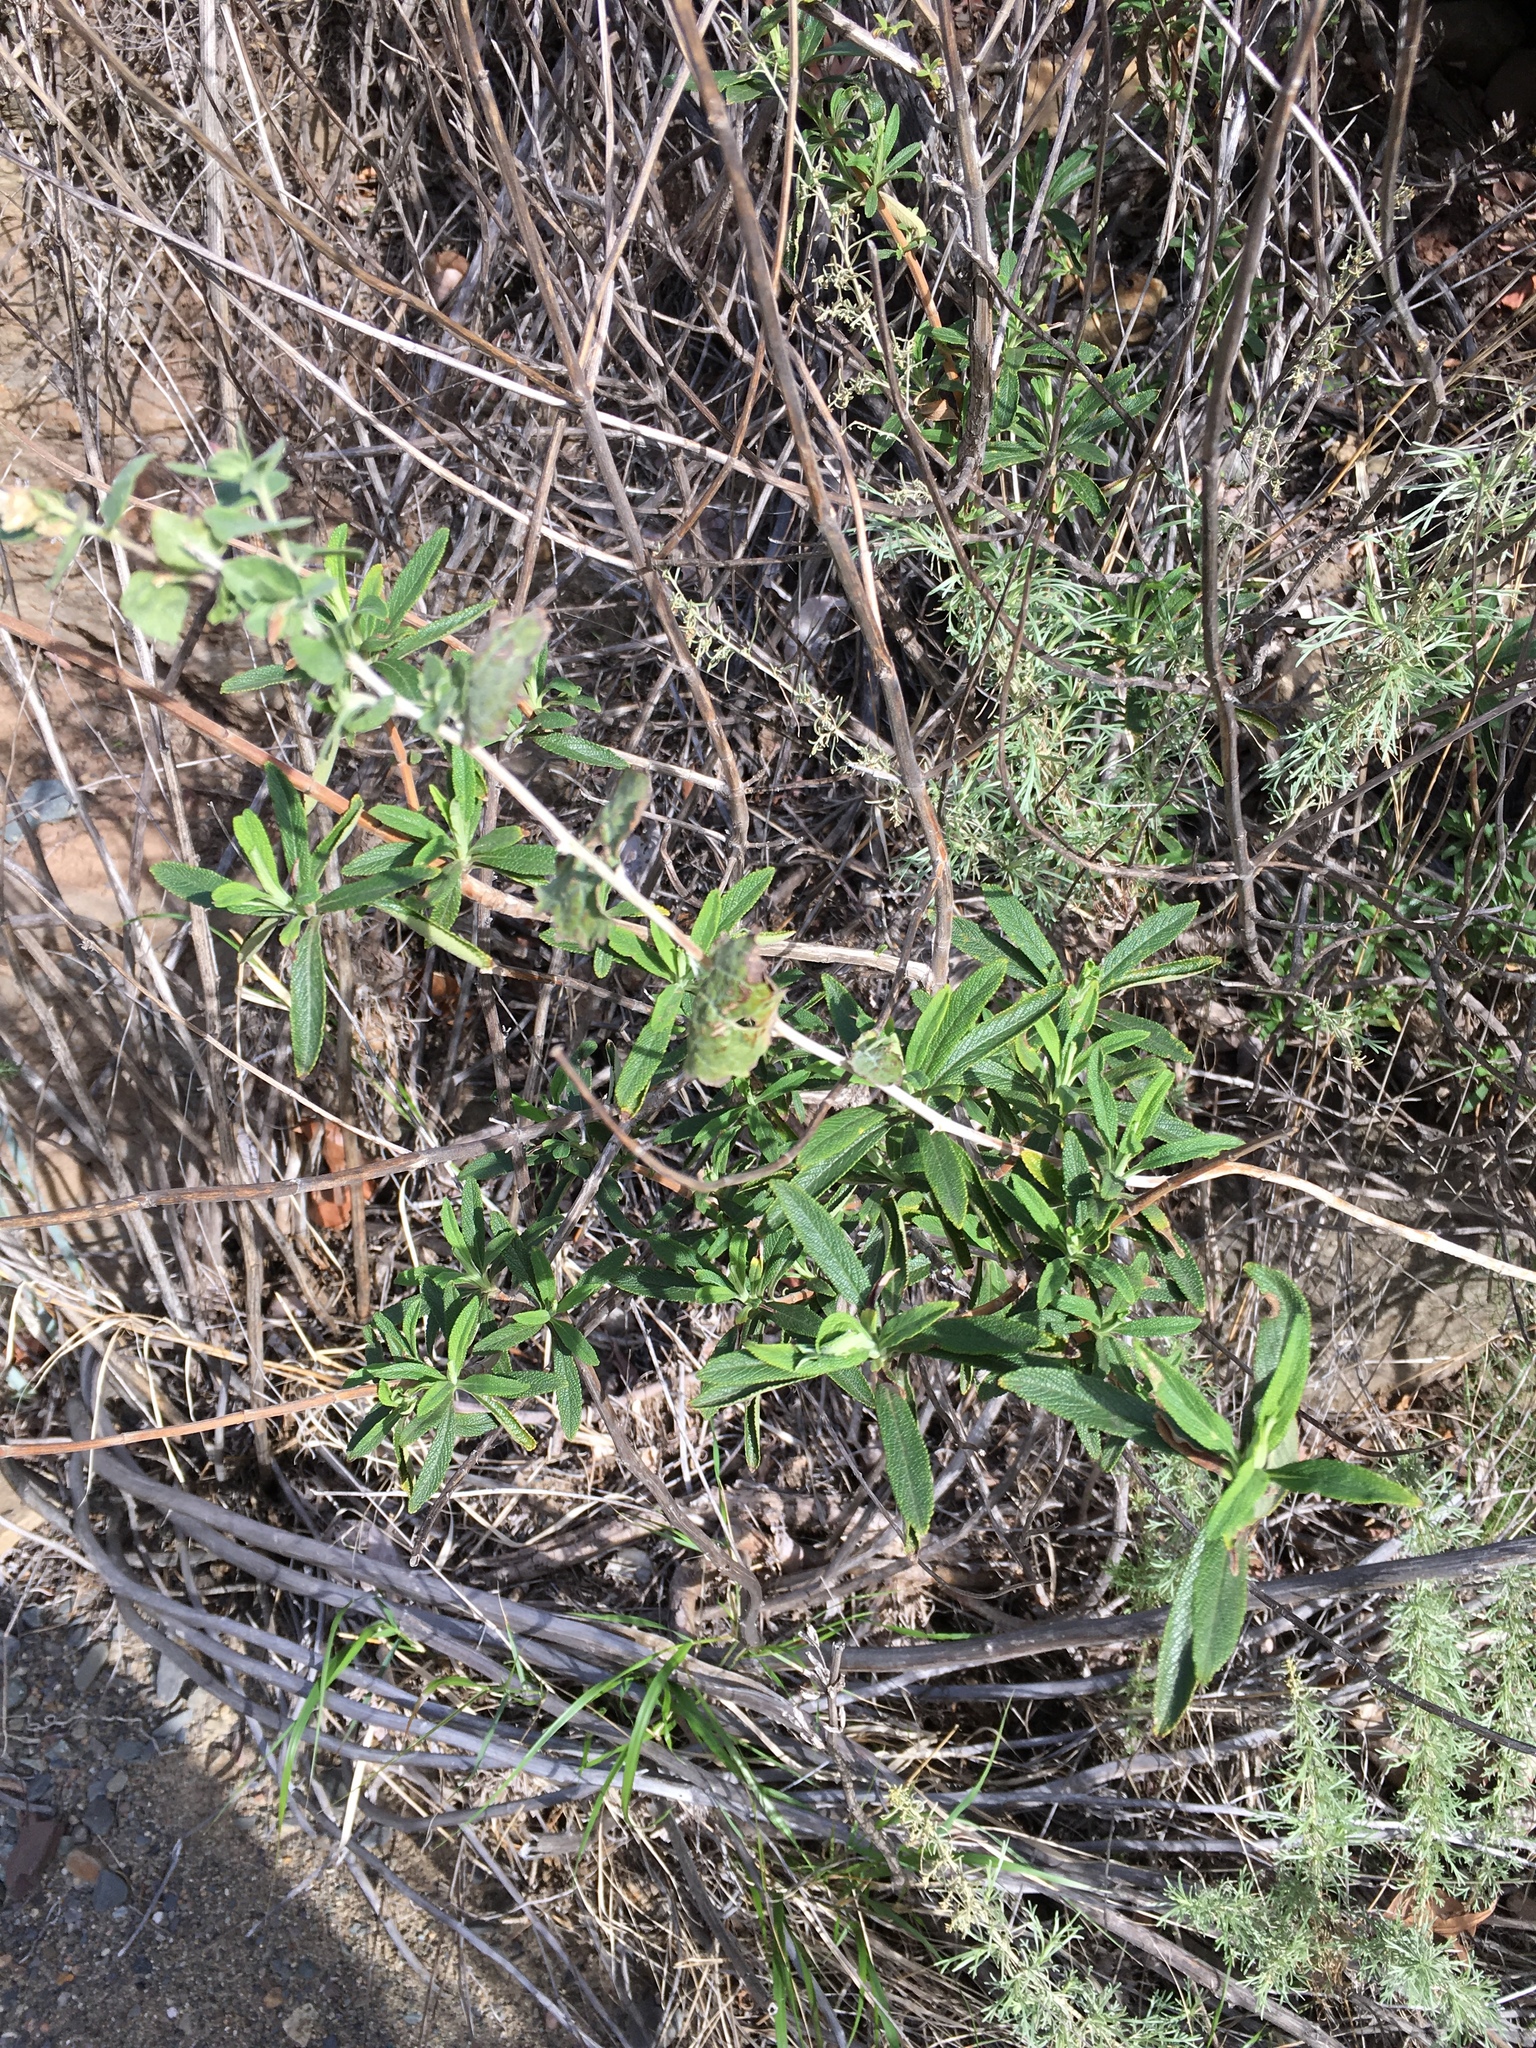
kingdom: Plantae
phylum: Tracheophyta
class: Magnoliopsida
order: Lamiales
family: Lamiaceae
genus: Salvia
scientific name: Salvia mellifera
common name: Black sage
